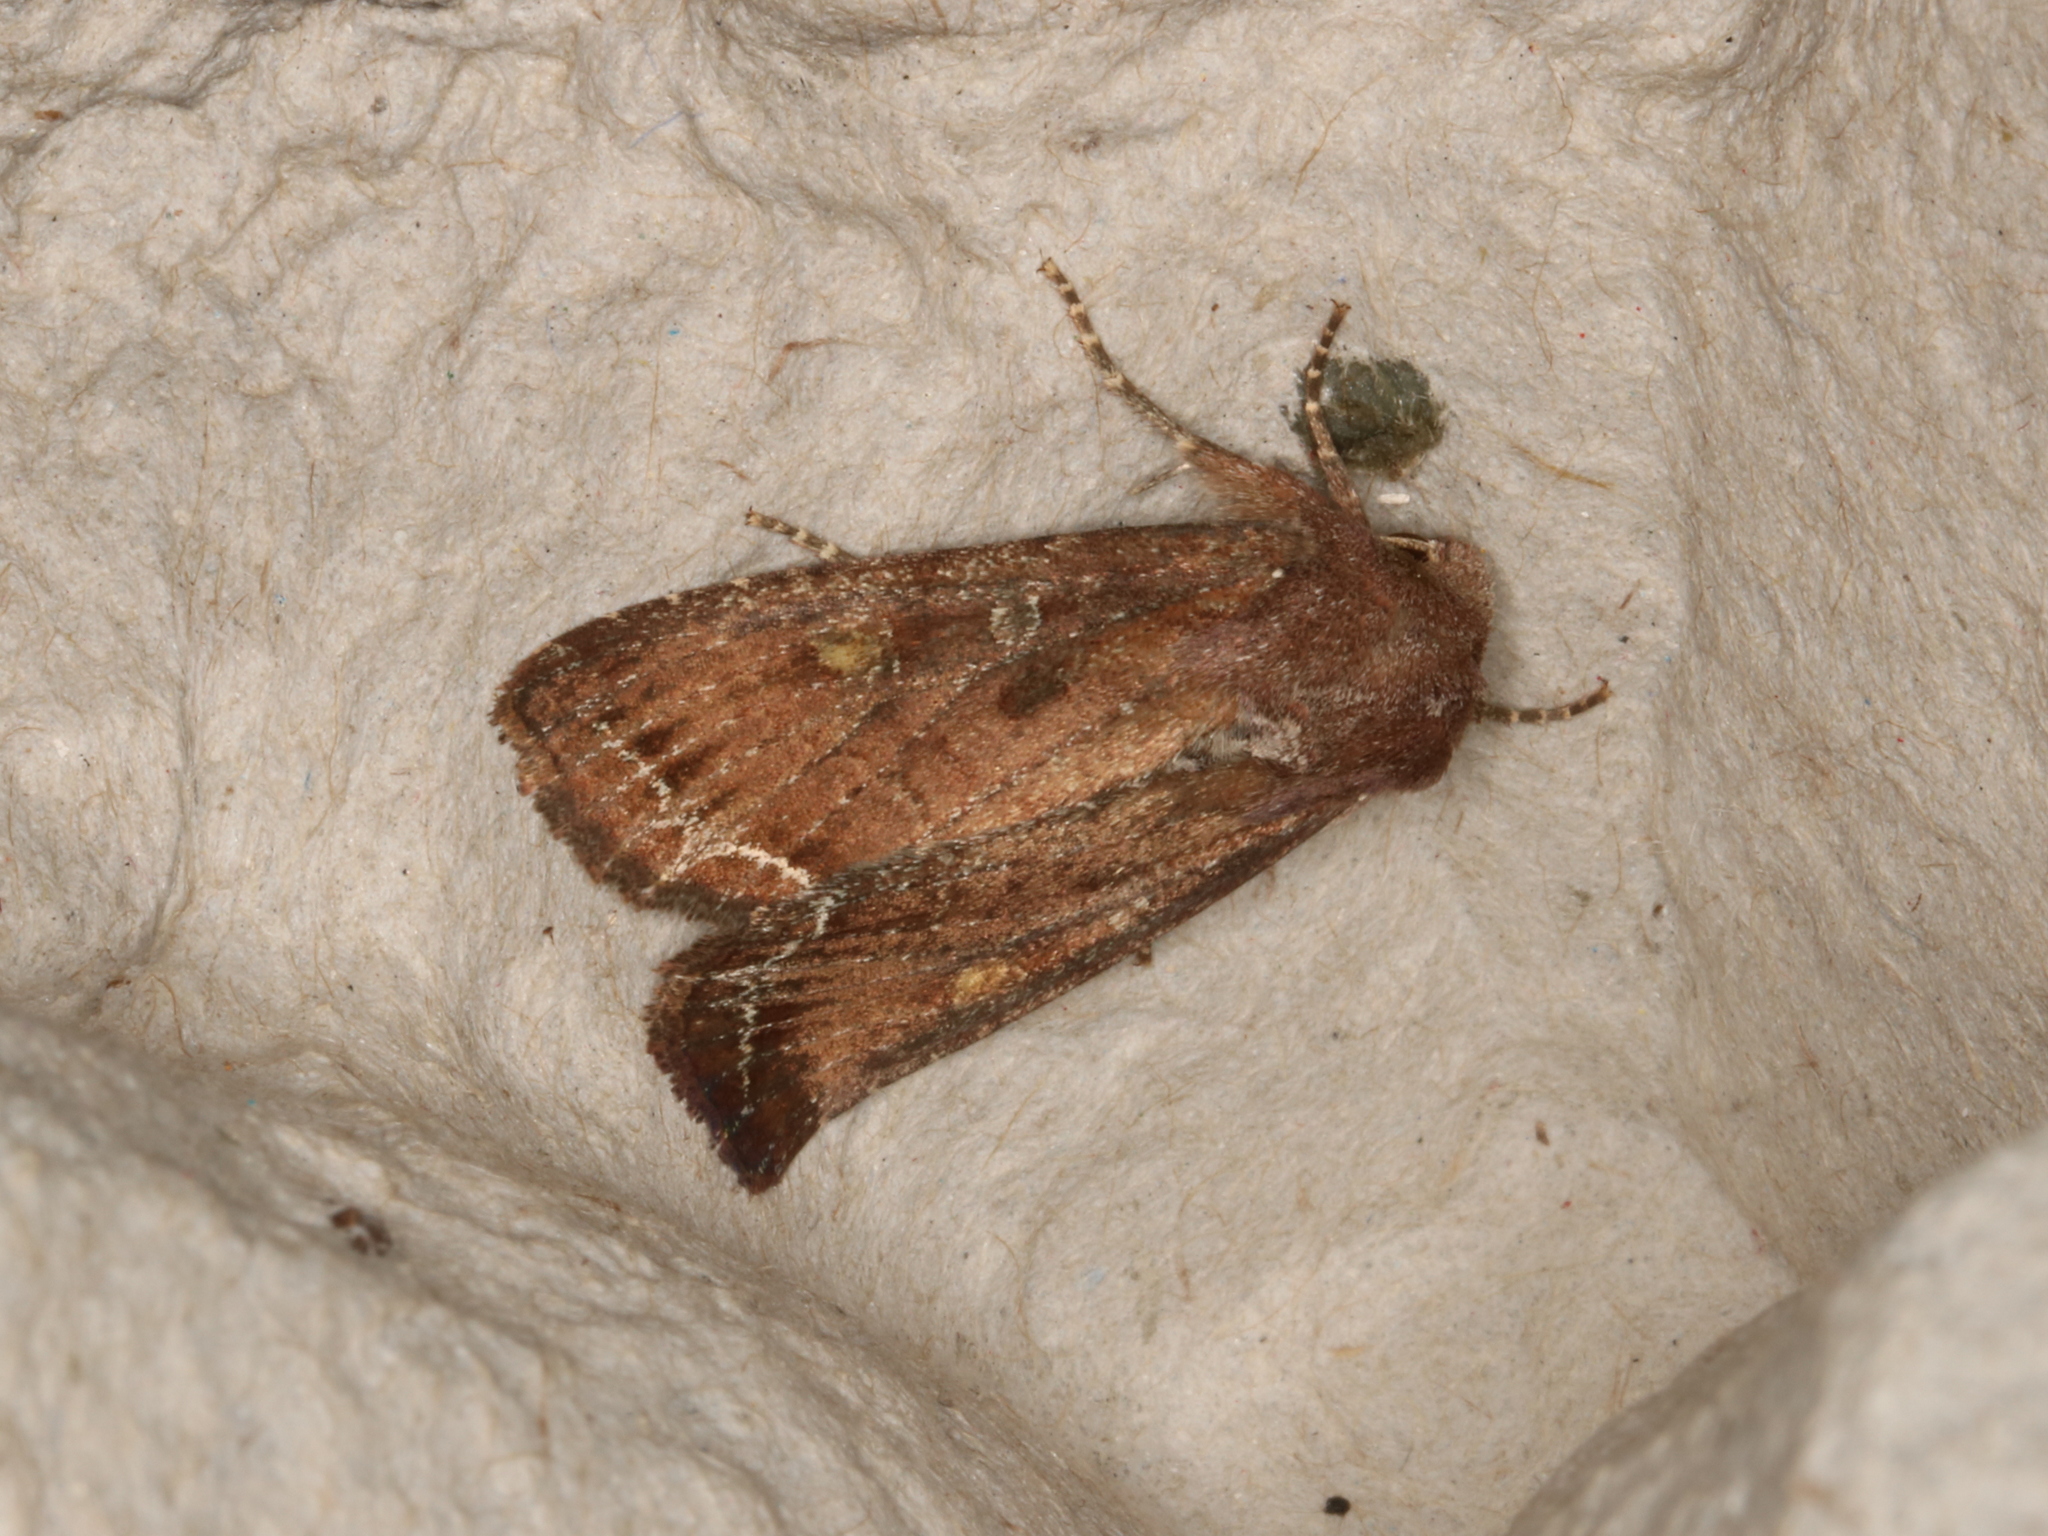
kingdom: Animalia
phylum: Arthropoda
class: Insecta
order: Lepidoptera
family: Noctuidae
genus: Lacanobia
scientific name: Lacanobia oleracea
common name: Bright-line brown-eye
